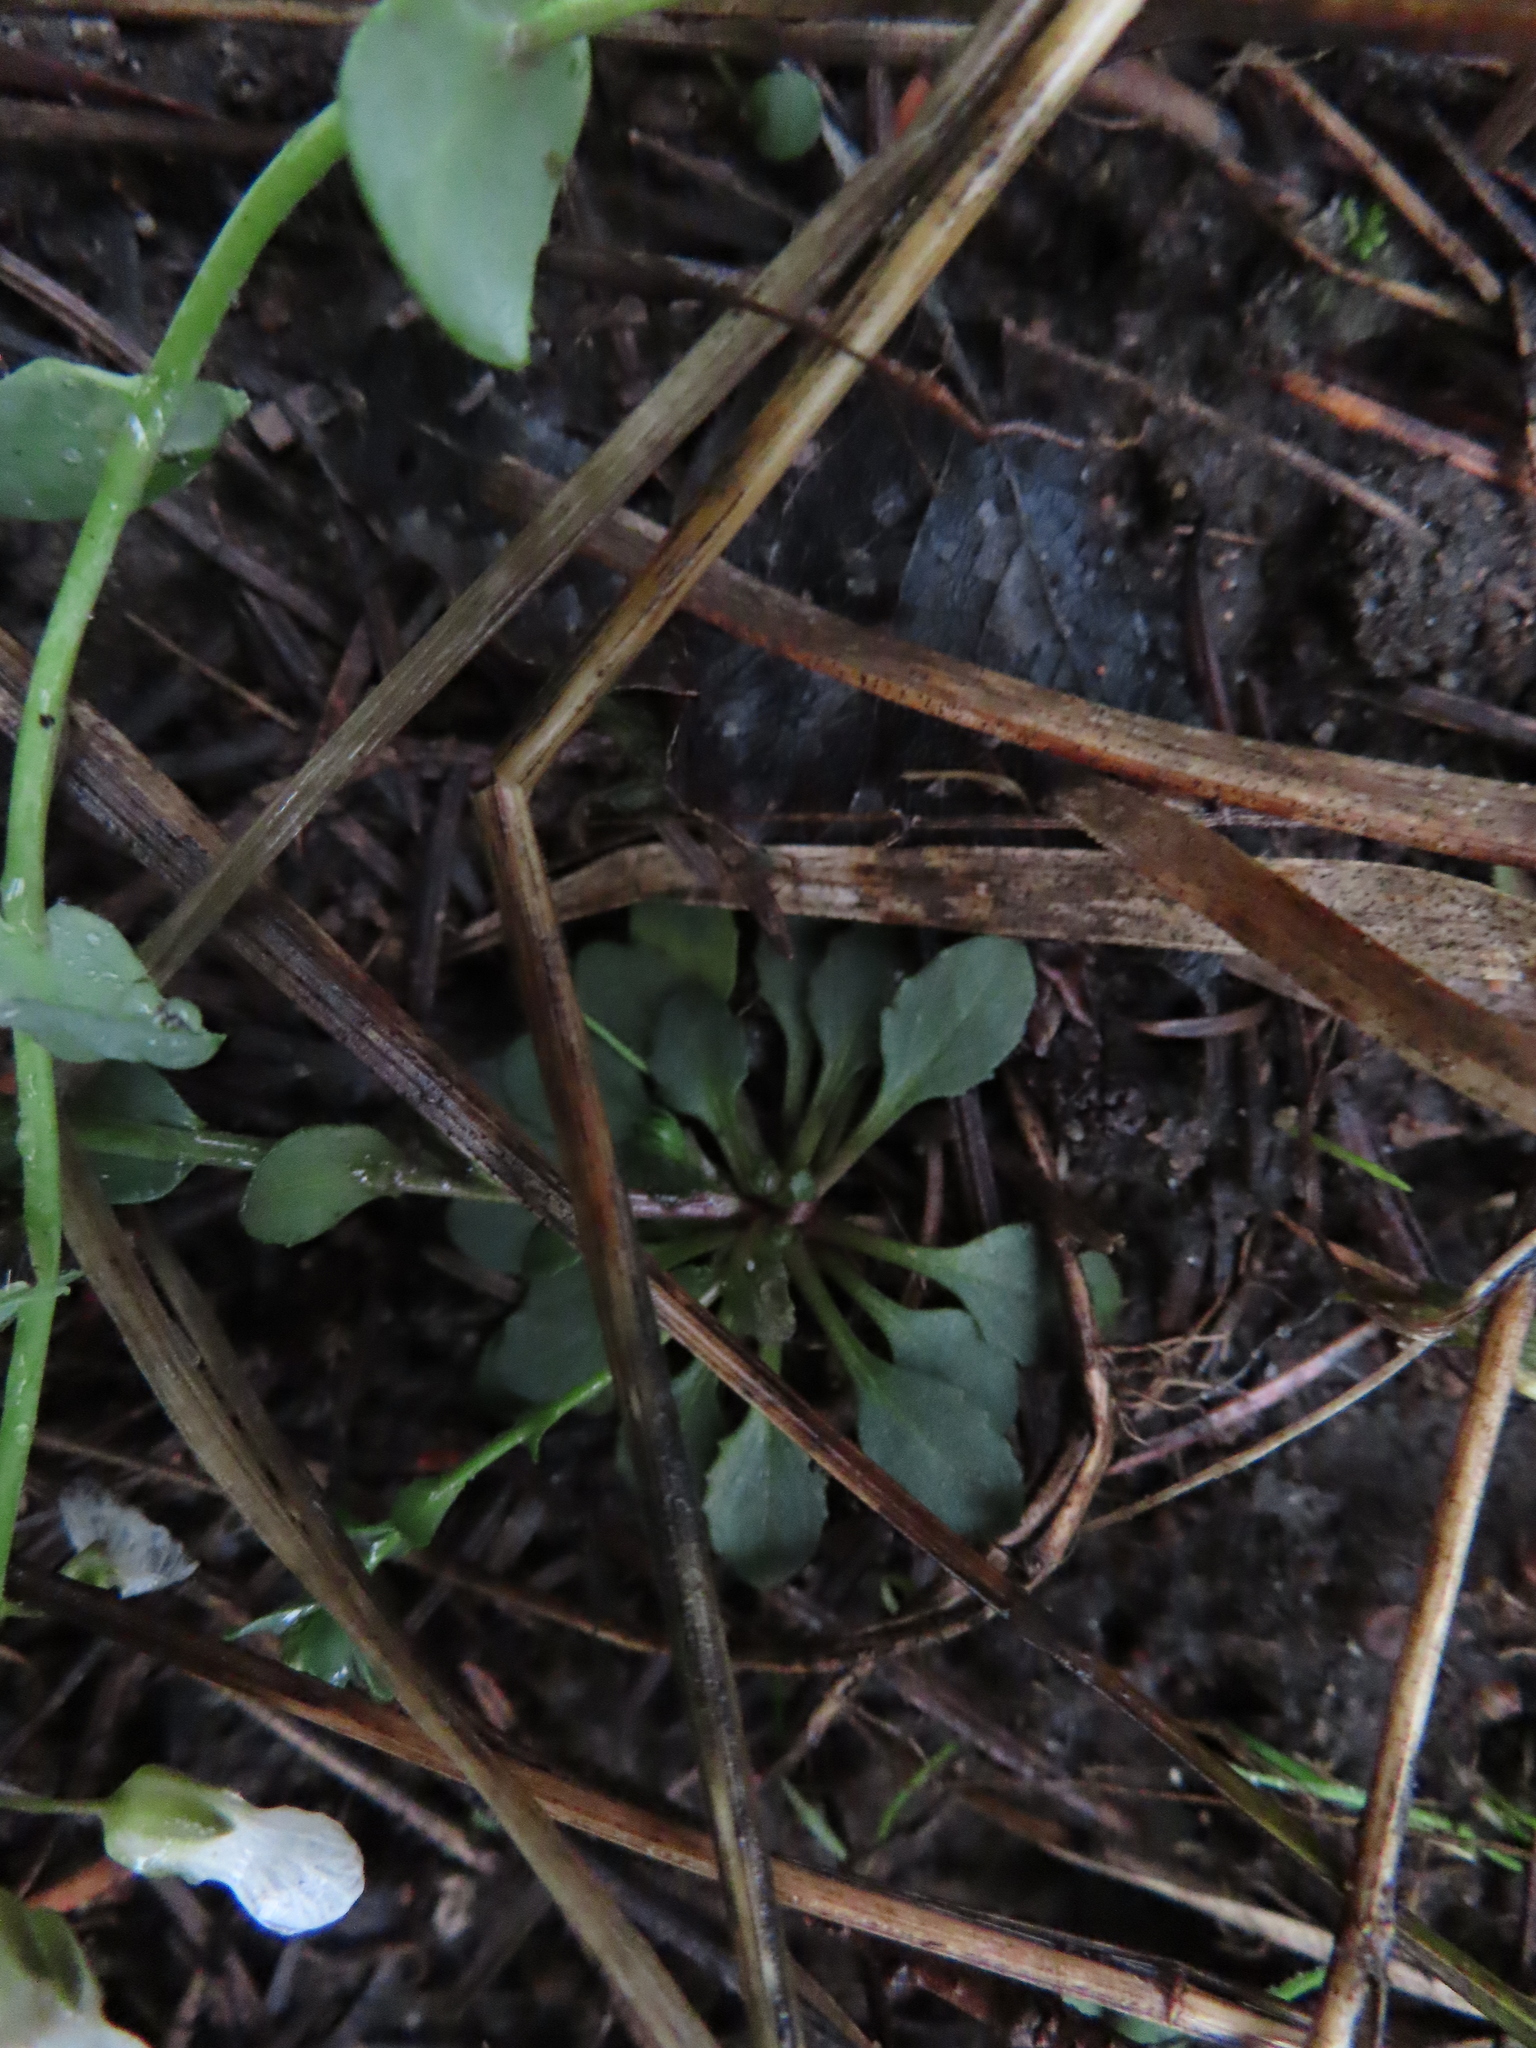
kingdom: Plantae
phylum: Tracheophyta
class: Magnoliopsida
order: Brassicales
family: Brassicaceae
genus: Noccaea
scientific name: Noccaea fendleri
